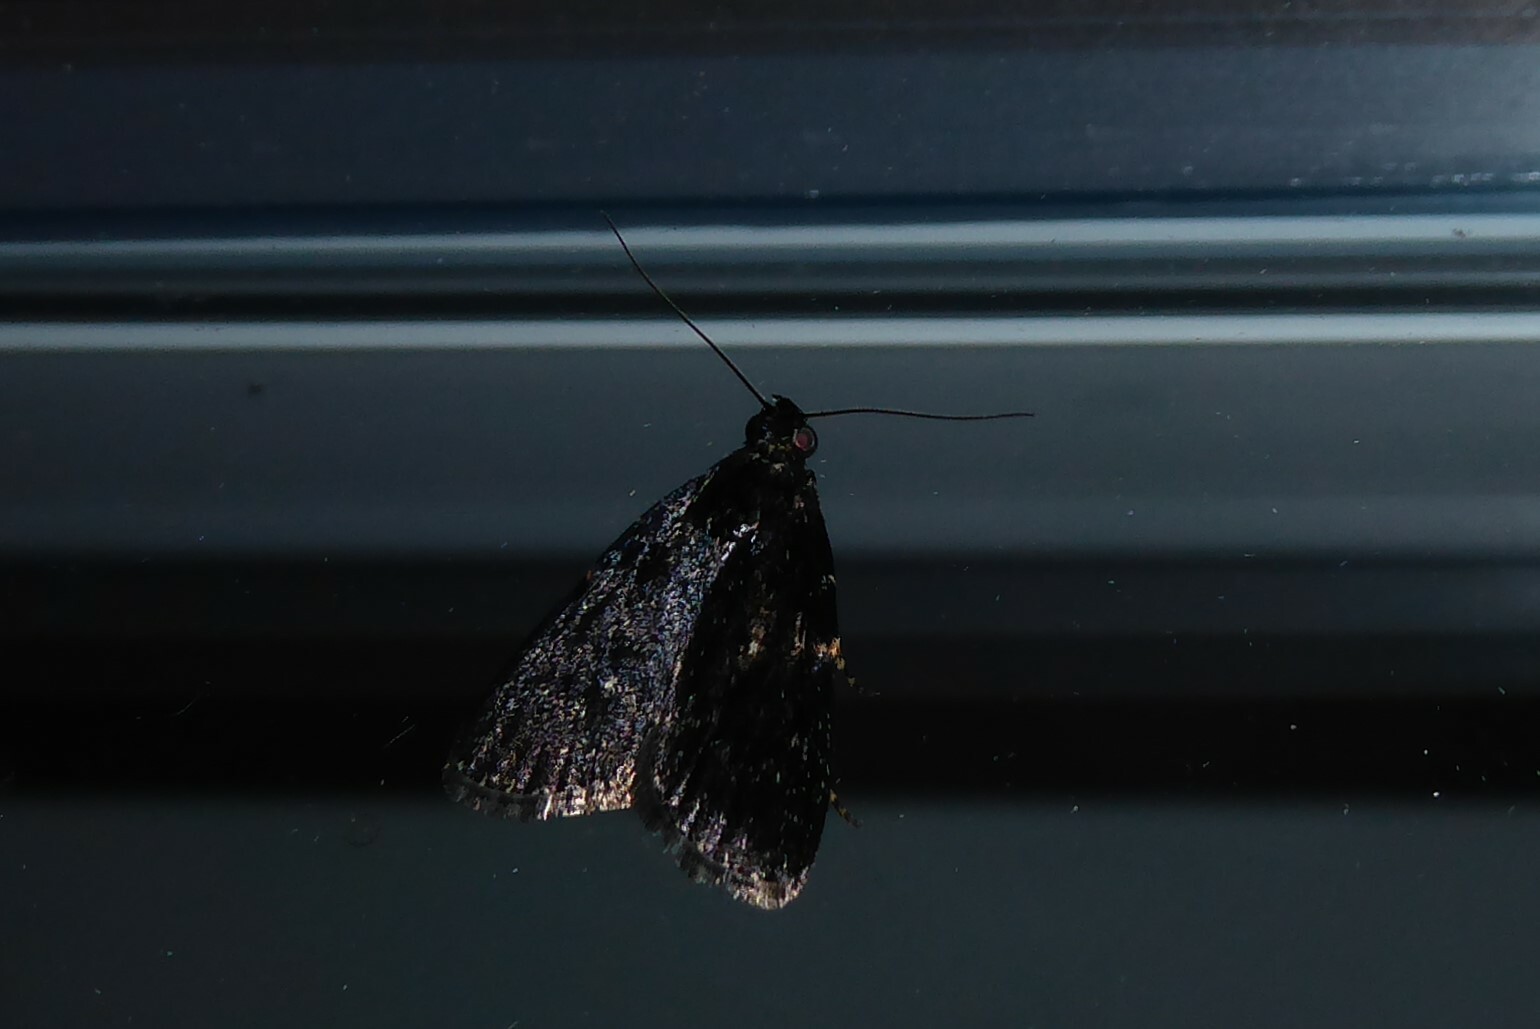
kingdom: Animalia
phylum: Arthropoda
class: Insecta
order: Lepidoptera
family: Pyralidae
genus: Stericta
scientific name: Stericta carbonalis
